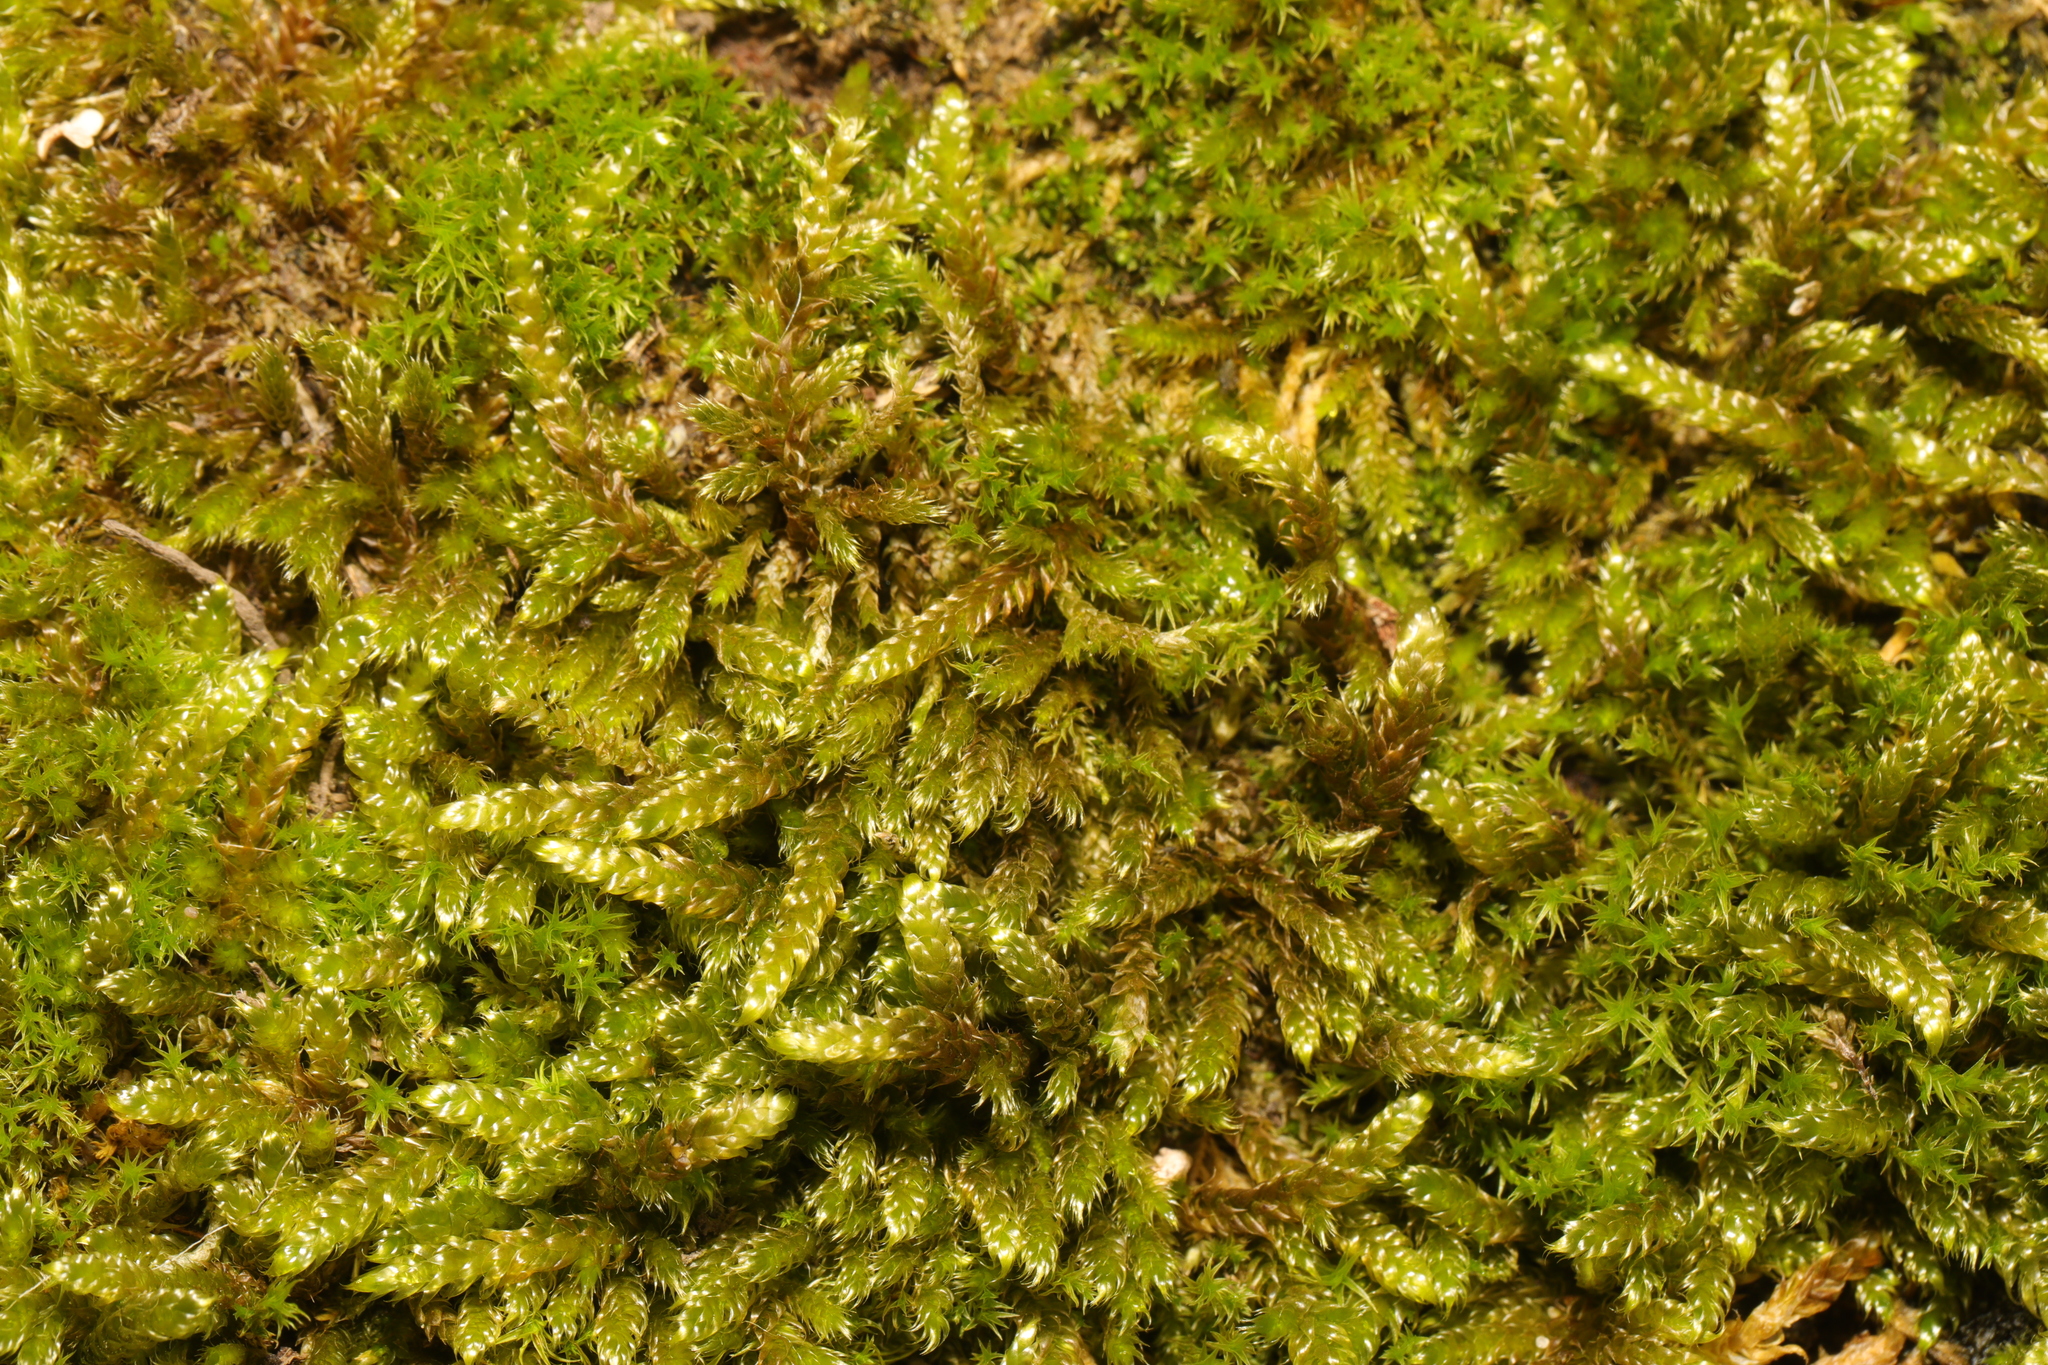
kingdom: Plantae
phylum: Bryophyta
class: Bryopsida
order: Hypnales
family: Hypnaceae
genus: Hypnum
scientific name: Hypnum cupressiforme
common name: Cypress-leaved plait-moss
